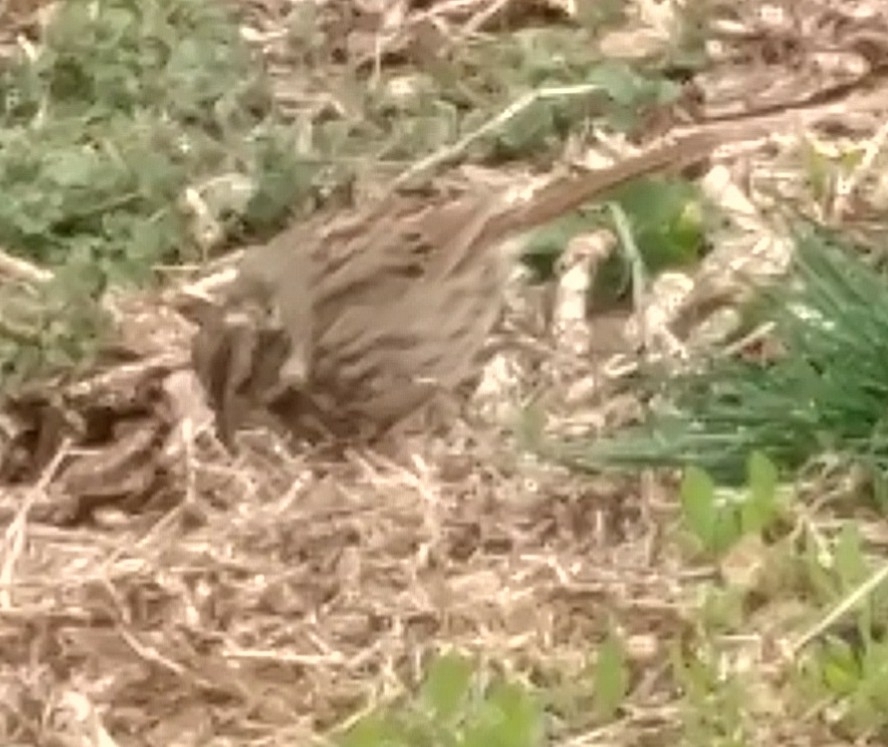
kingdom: Animalia
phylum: Chordata
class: Aves
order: Passeriformes
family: Passerellidae
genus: Melospiza
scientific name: Melospiza melodia
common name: Song sparrow
